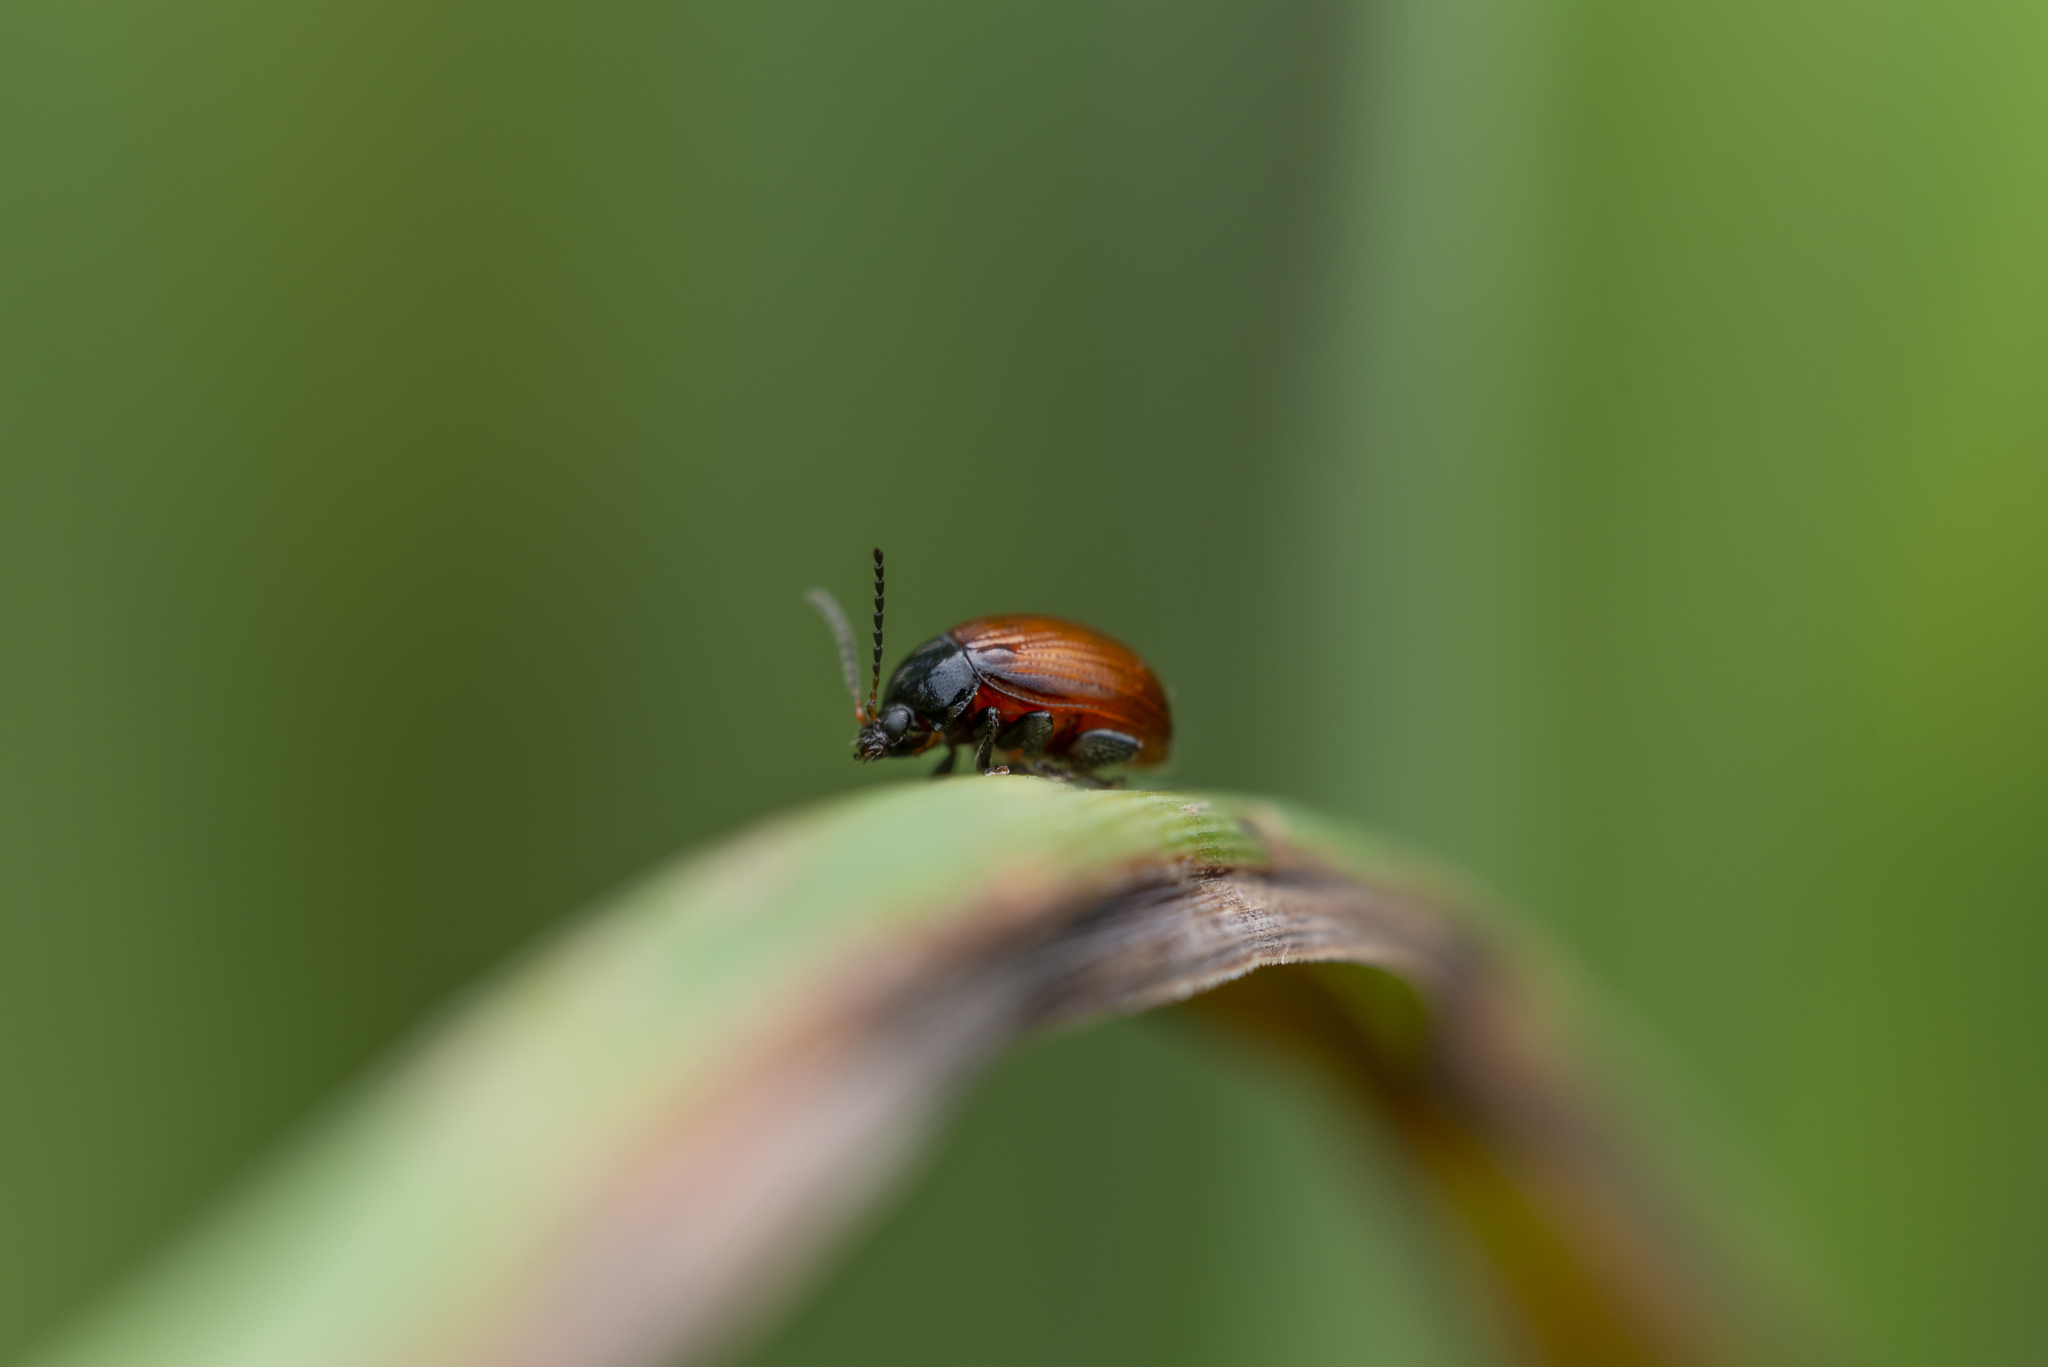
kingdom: Animalia
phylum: Arthropoda
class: Insecta
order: Coleoptera
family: Chrysomelidae
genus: Podagricomela
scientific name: Podagricomela nigricollis
